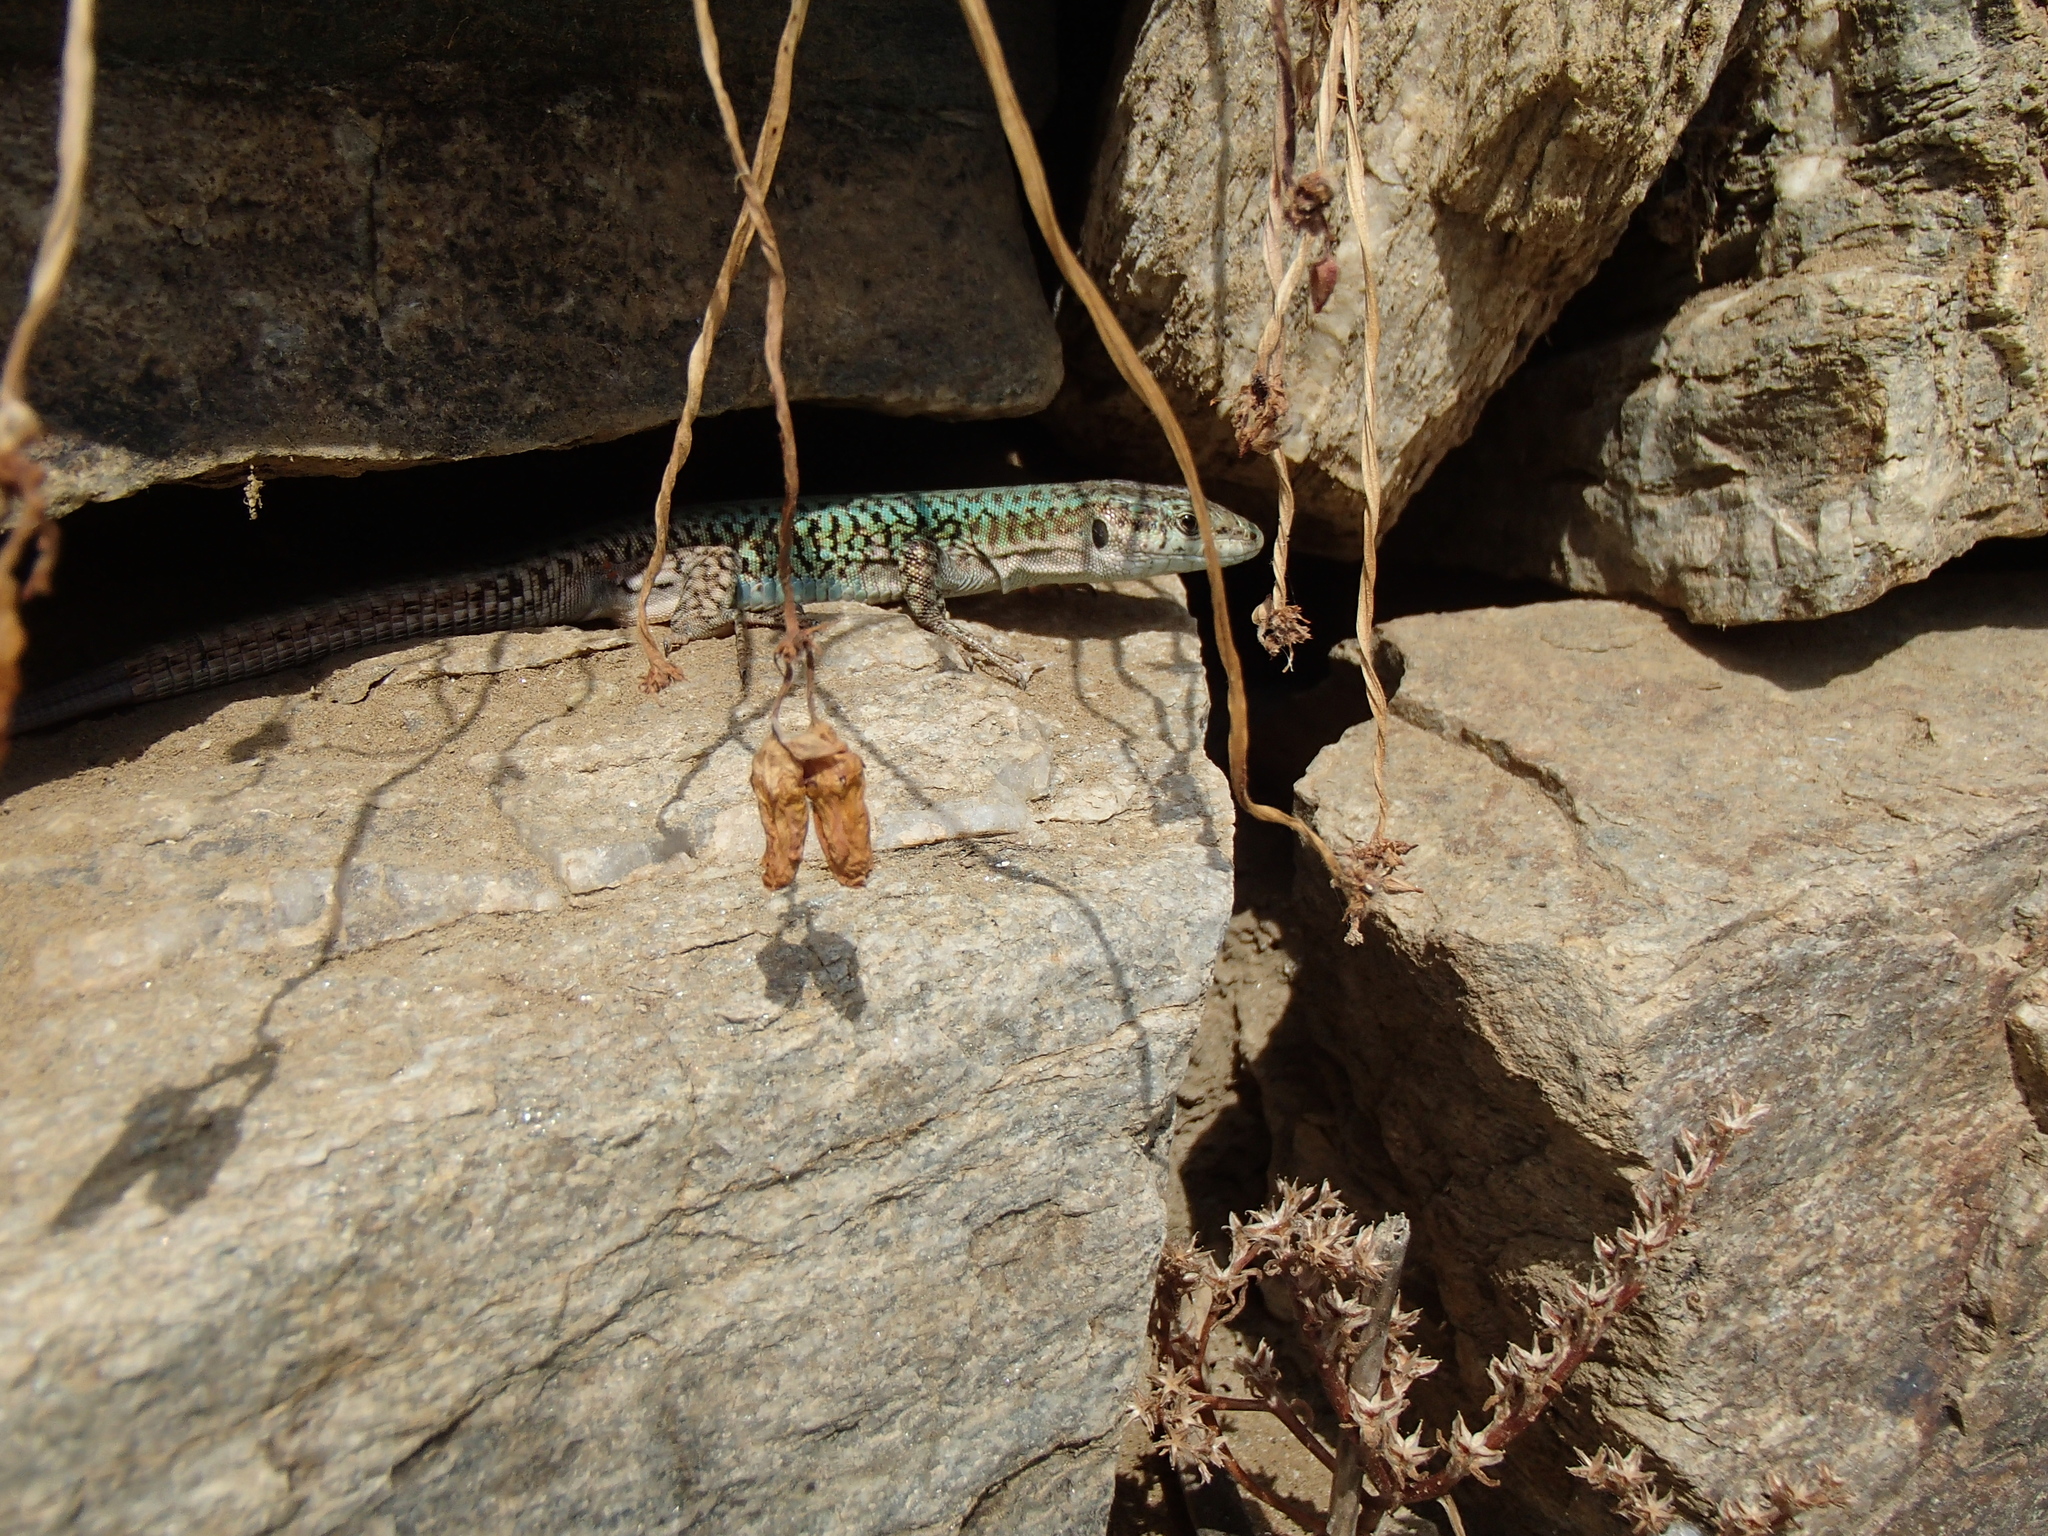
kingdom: Animalia
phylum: Chordata
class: Squamata
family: Lacertidae
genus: Podarcis
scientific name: Podarcis erhardii
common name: Erhard's wall lizard
